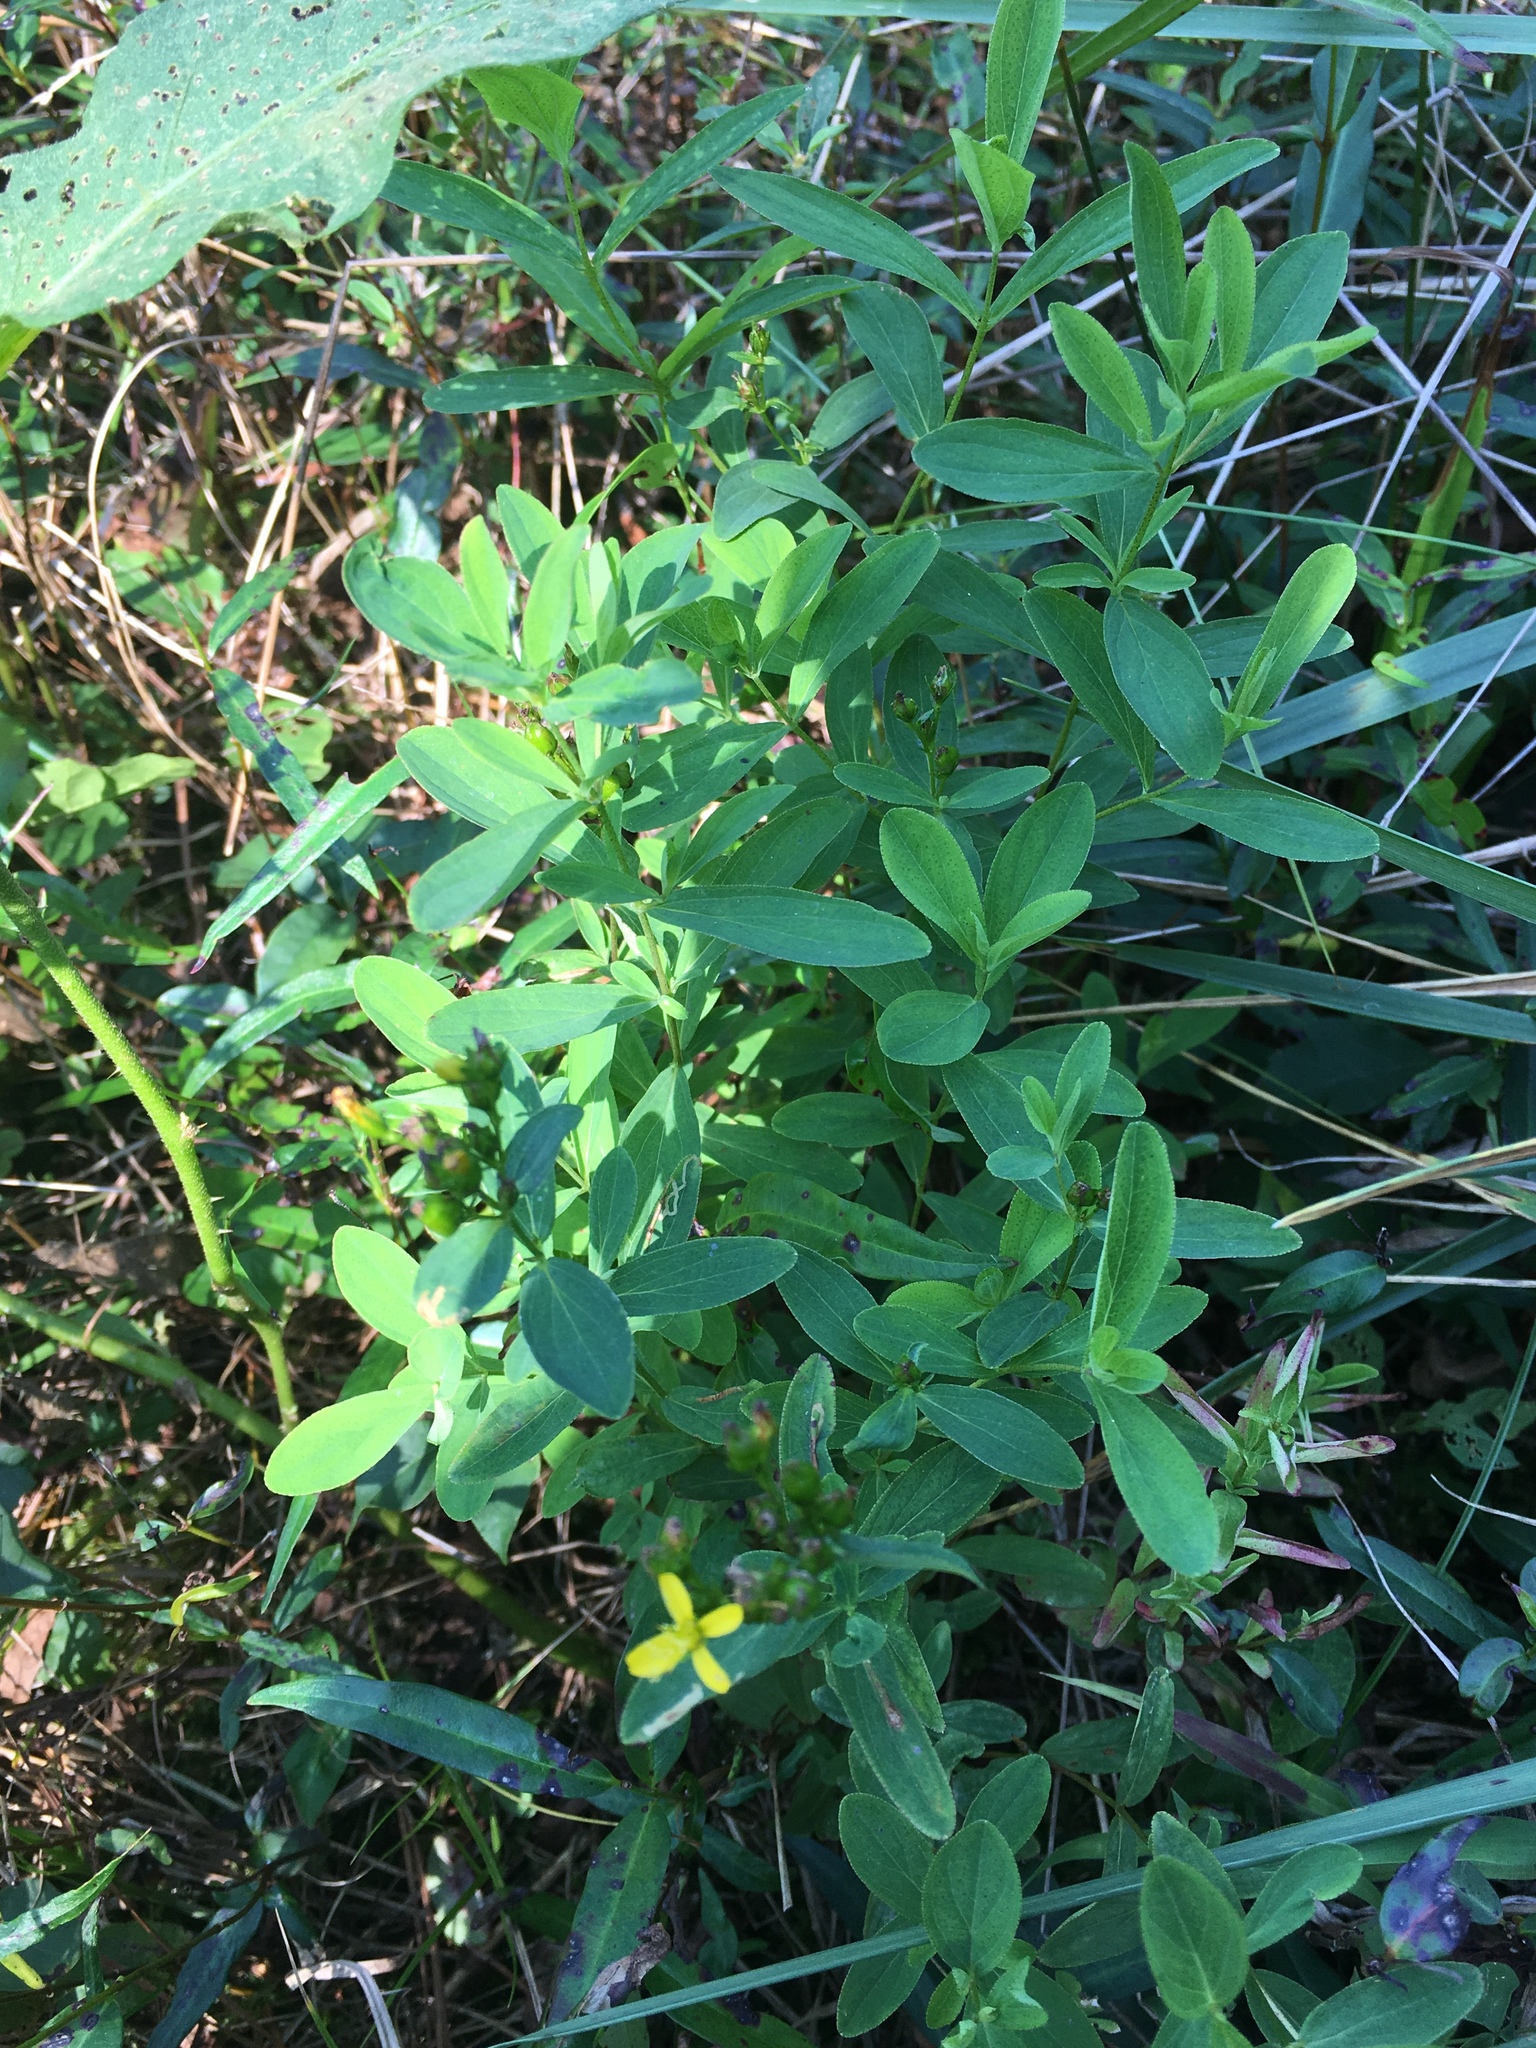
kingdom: Plantae
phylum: Tracheophyta
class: Magnoliopsida
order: Malpighiales
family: Hypericaceae
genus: Hypericum
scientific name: Hypericum punctatum
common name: Spotted st. john's-wort
